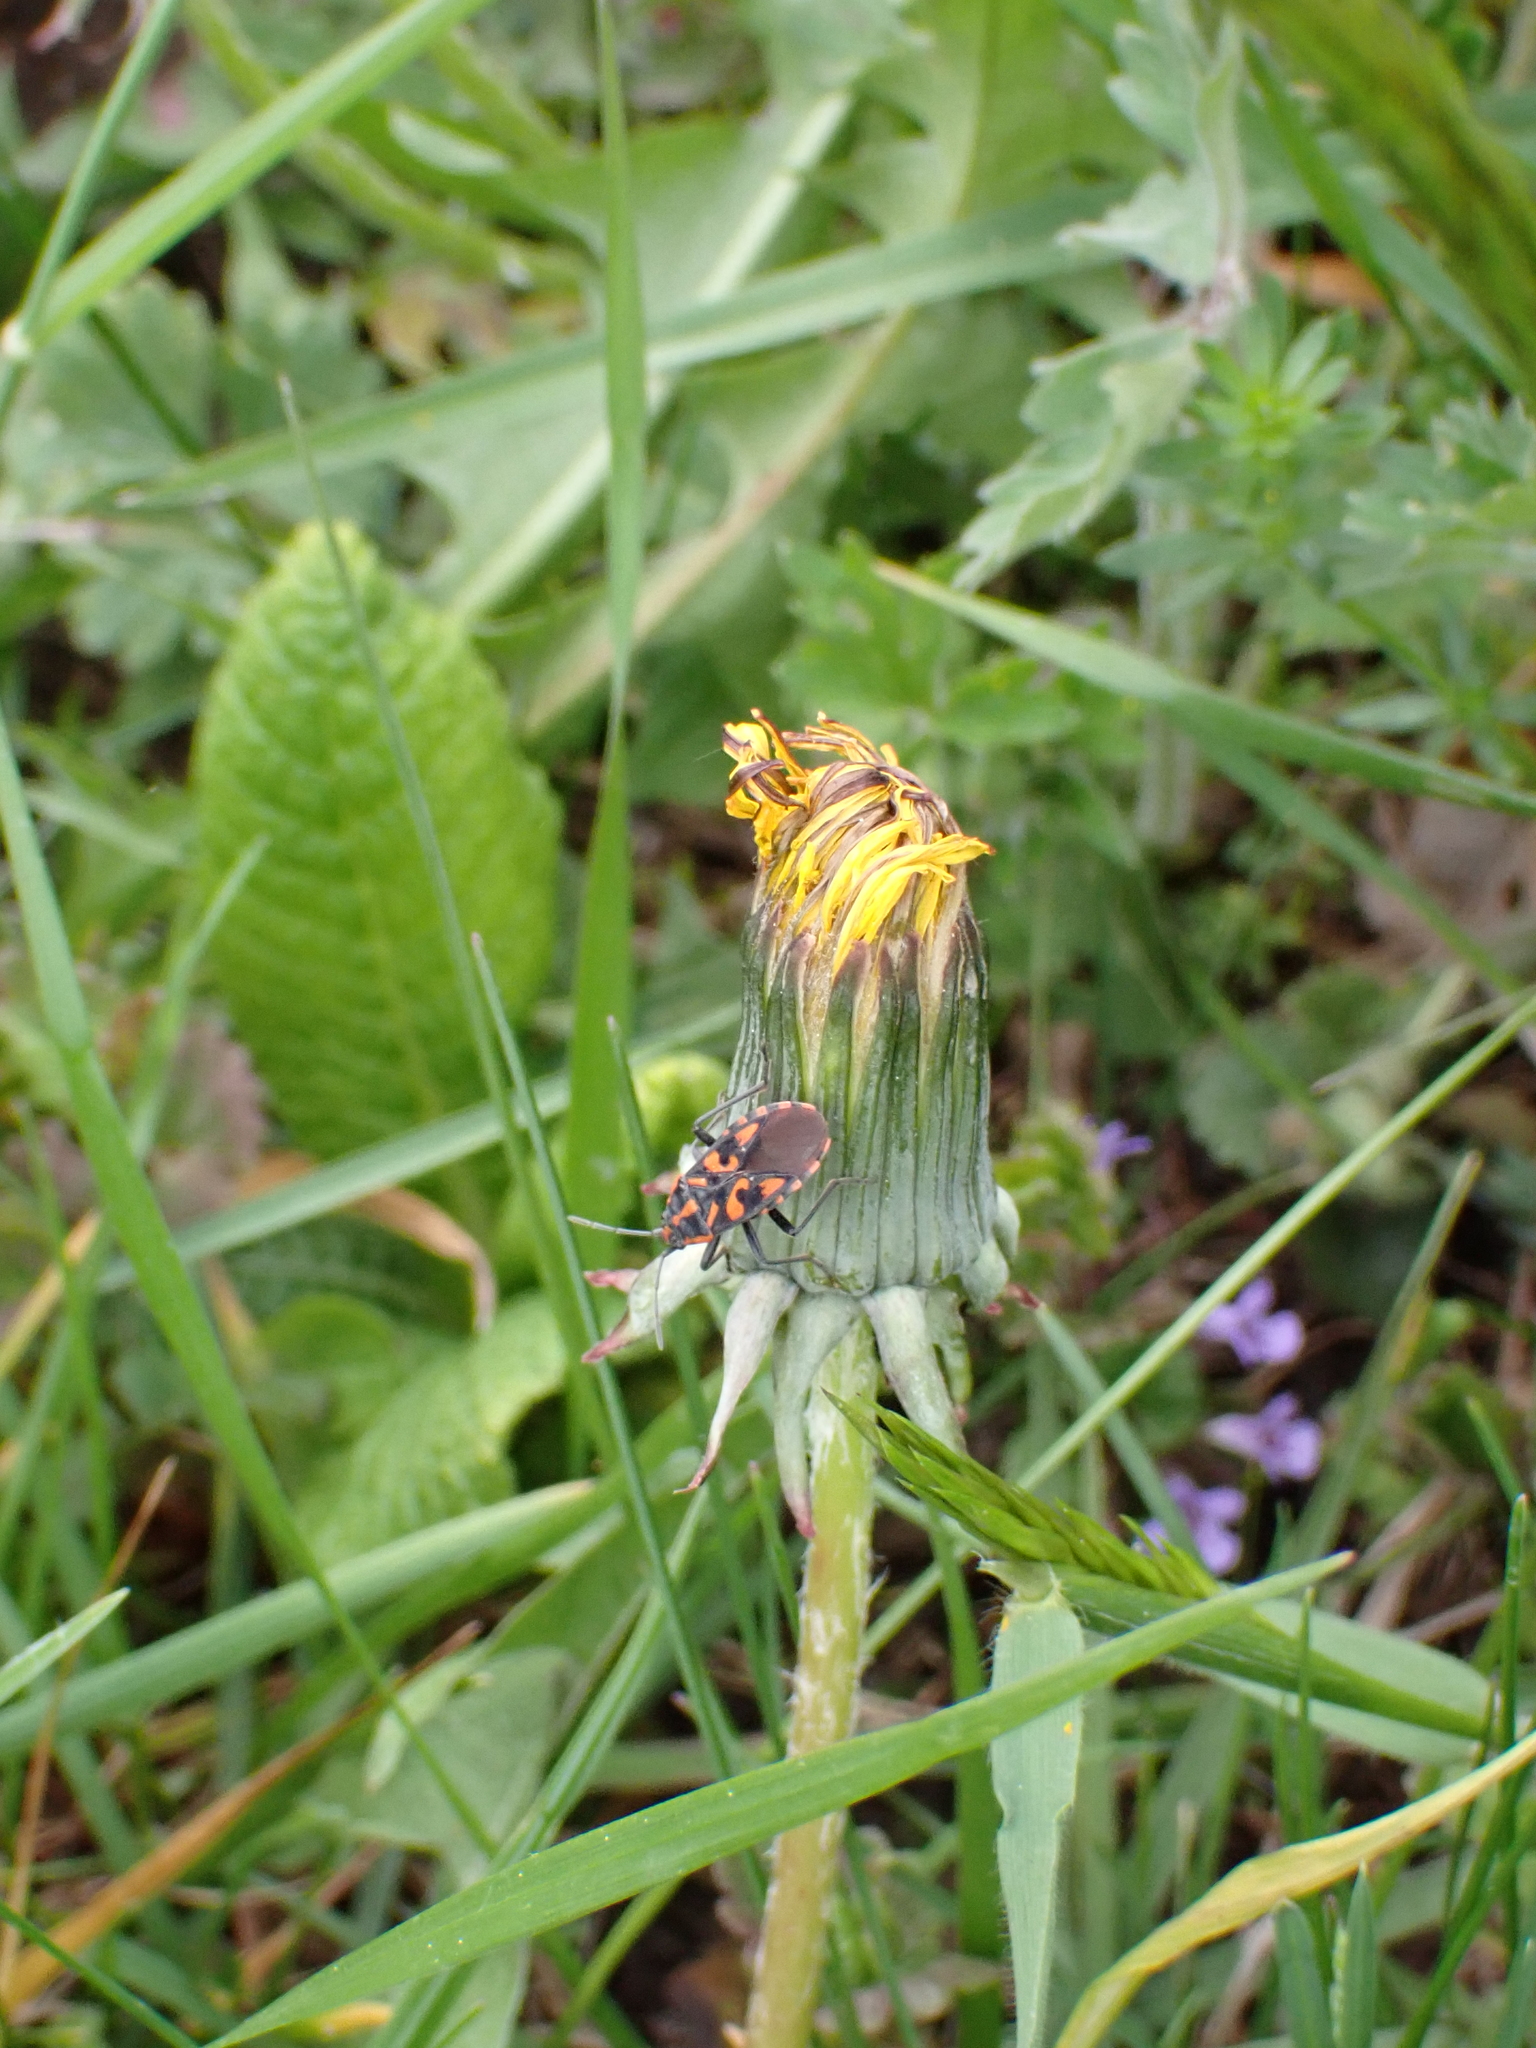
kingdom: Animalia
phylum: Arthropoda
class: Insecta
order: Hemiptera
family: Lygaeidae
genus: Spilostethus
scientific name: Spilostethus saxatilis
